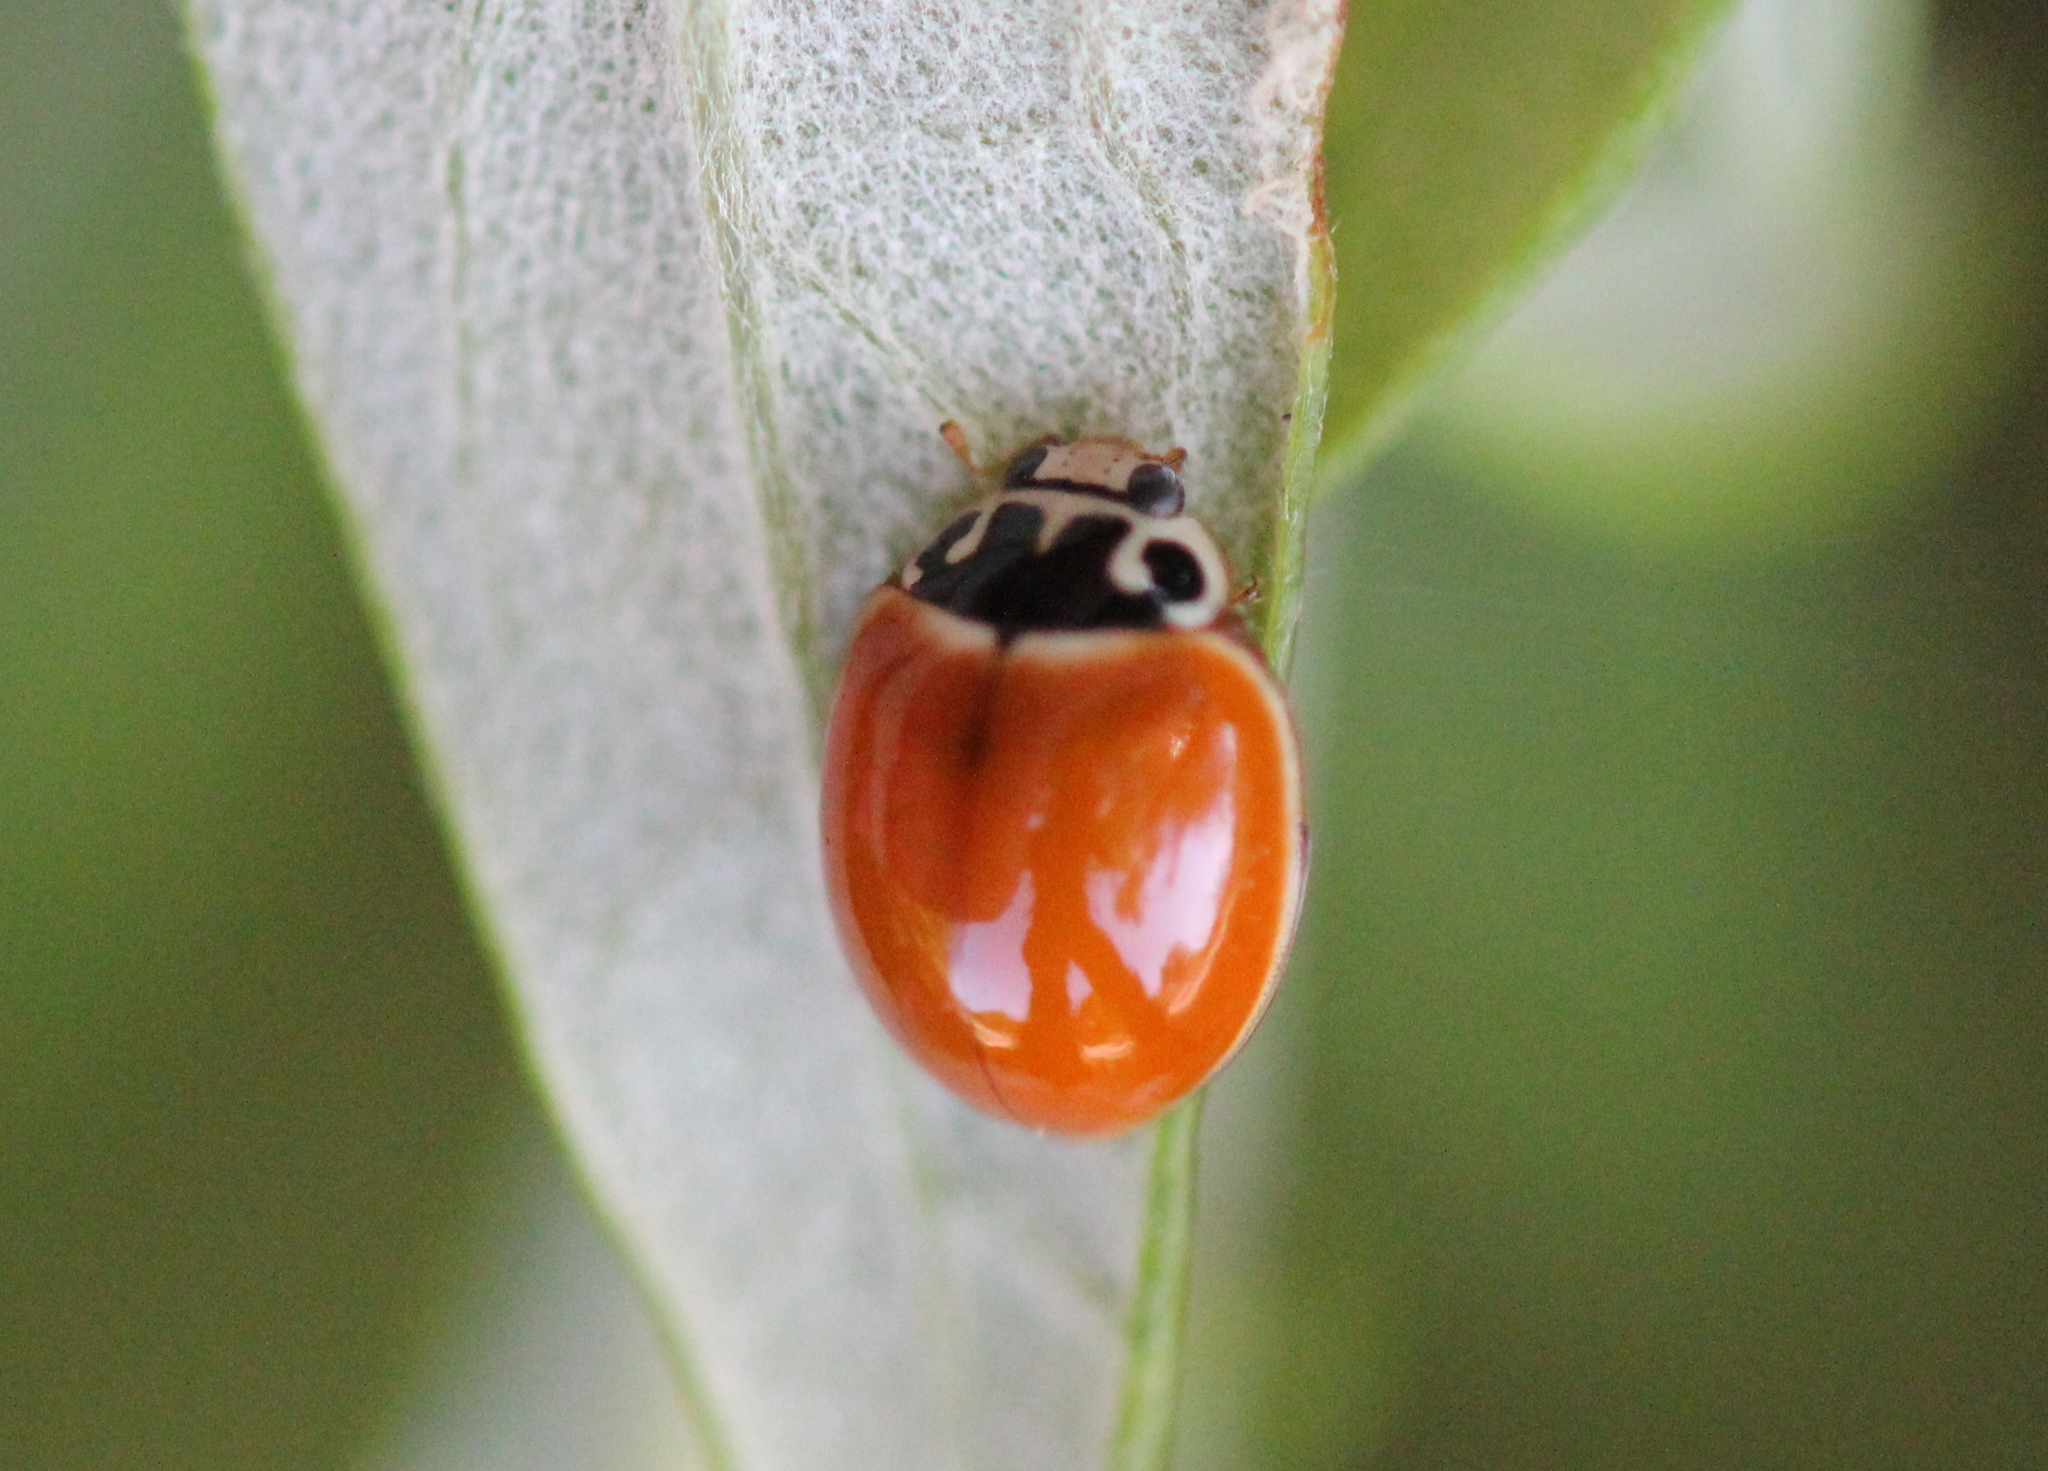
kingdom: Animalia
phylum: Arthropoda
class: Insecta
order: Coleoptera
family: Coccinellidae
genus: Cycloneda
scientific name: Cycloneda munda
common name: Polished lady beetle
